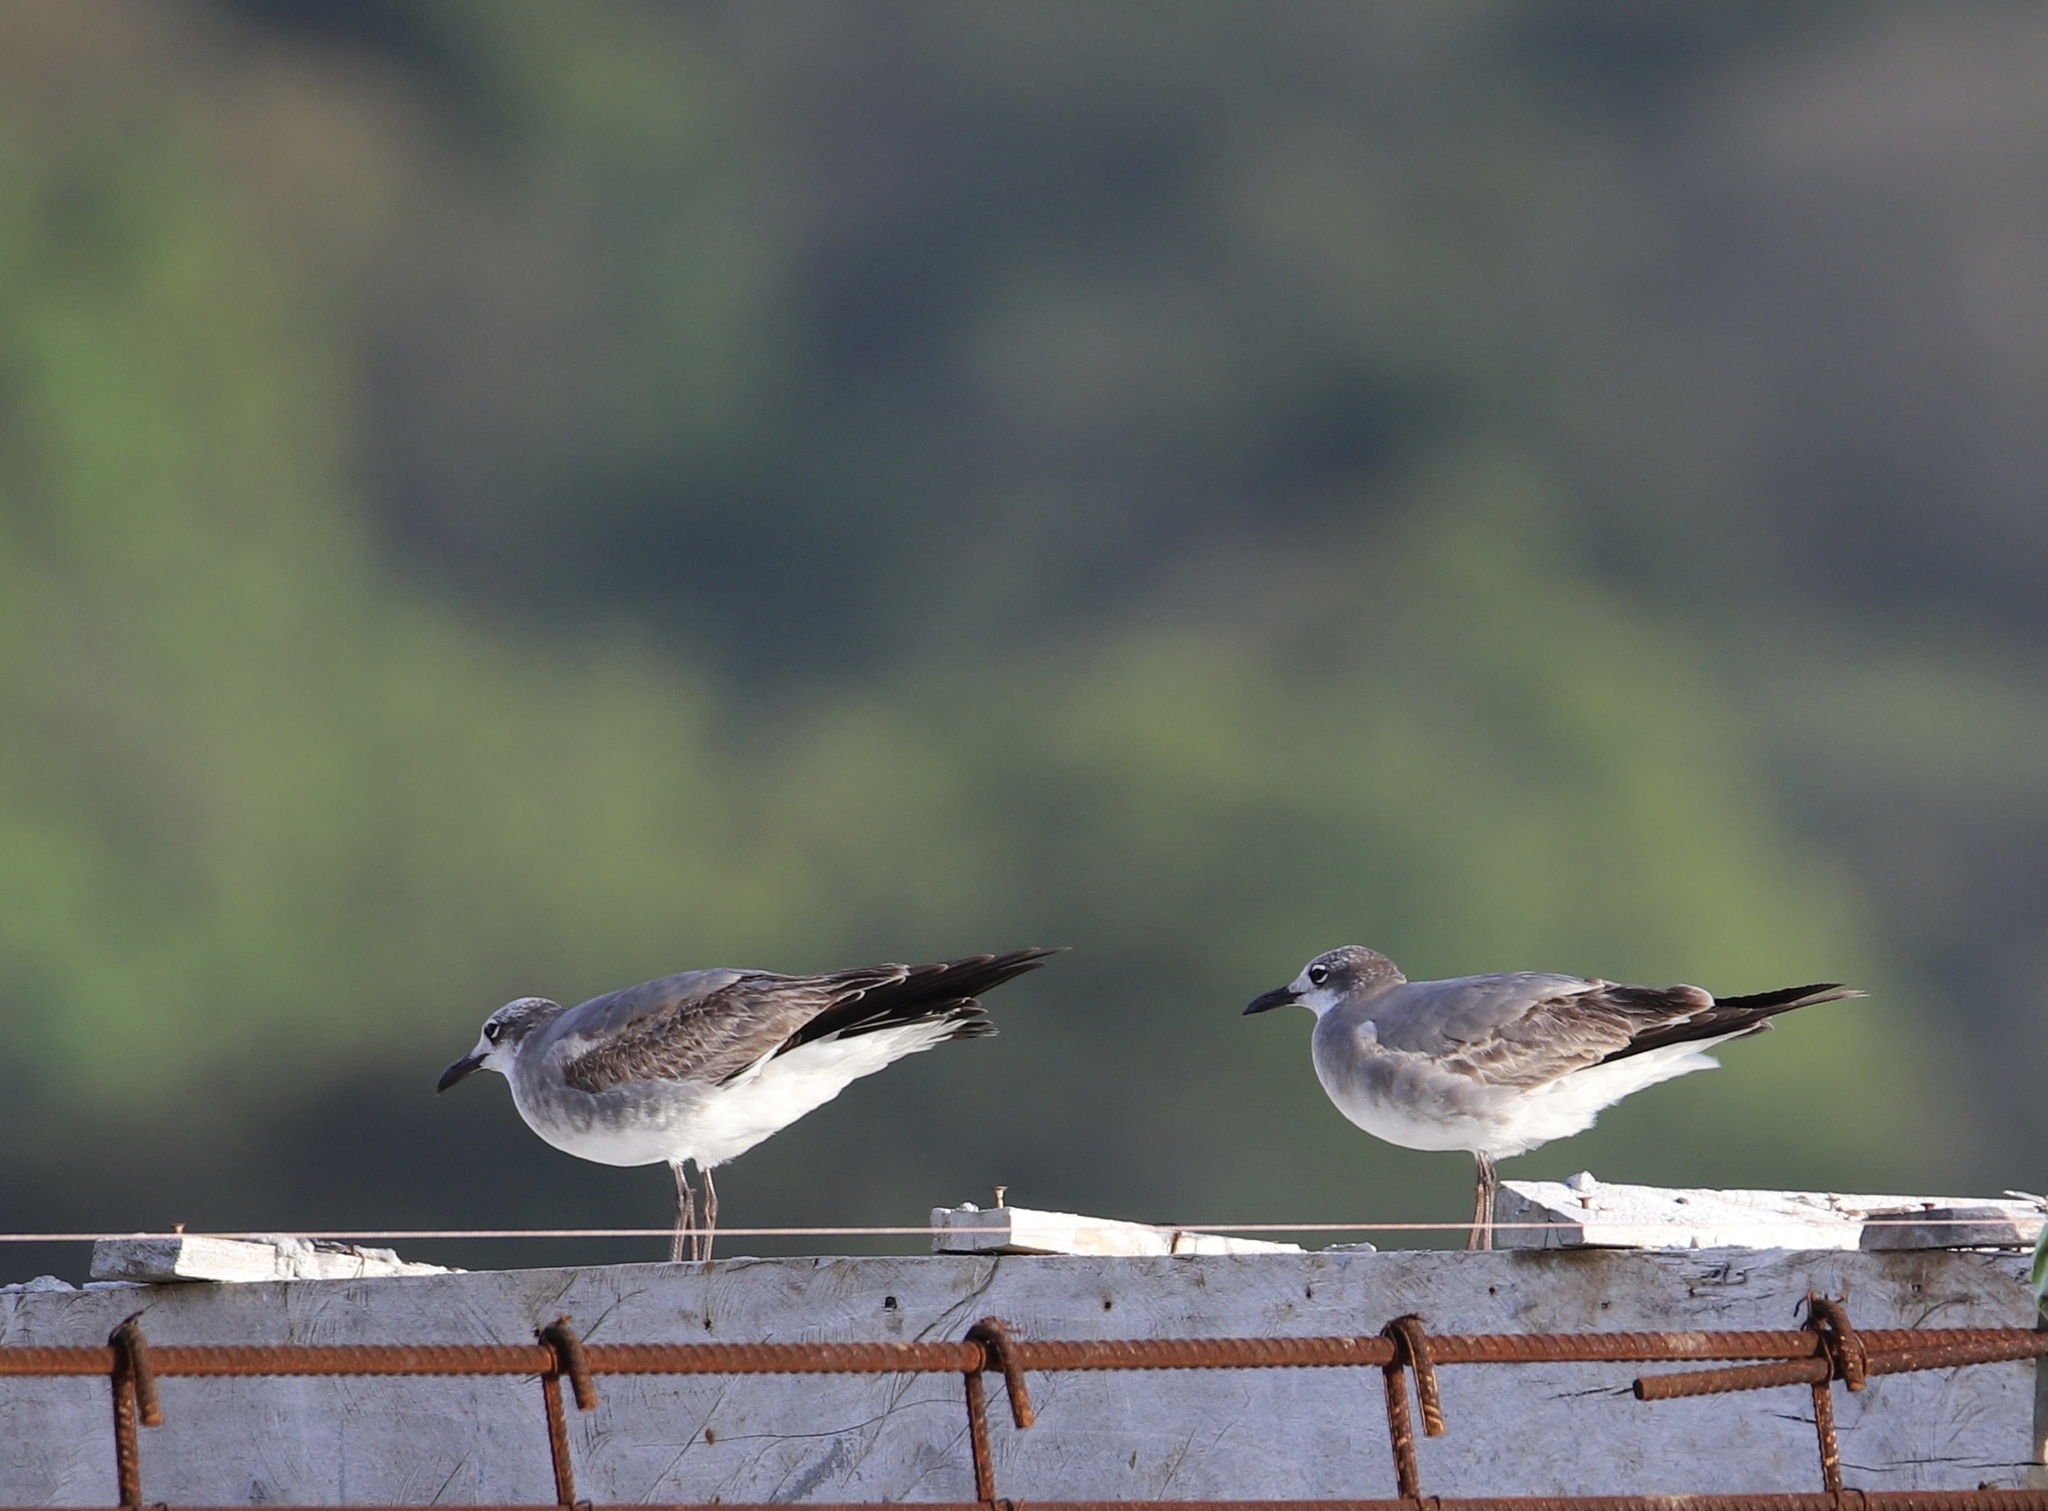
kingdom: Animalia
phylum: Chordata
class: Aves
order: Charadriiformes
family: Laridae
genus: Leucophaeus
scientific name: Leucophaeus atricilla
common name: Laughing gull
